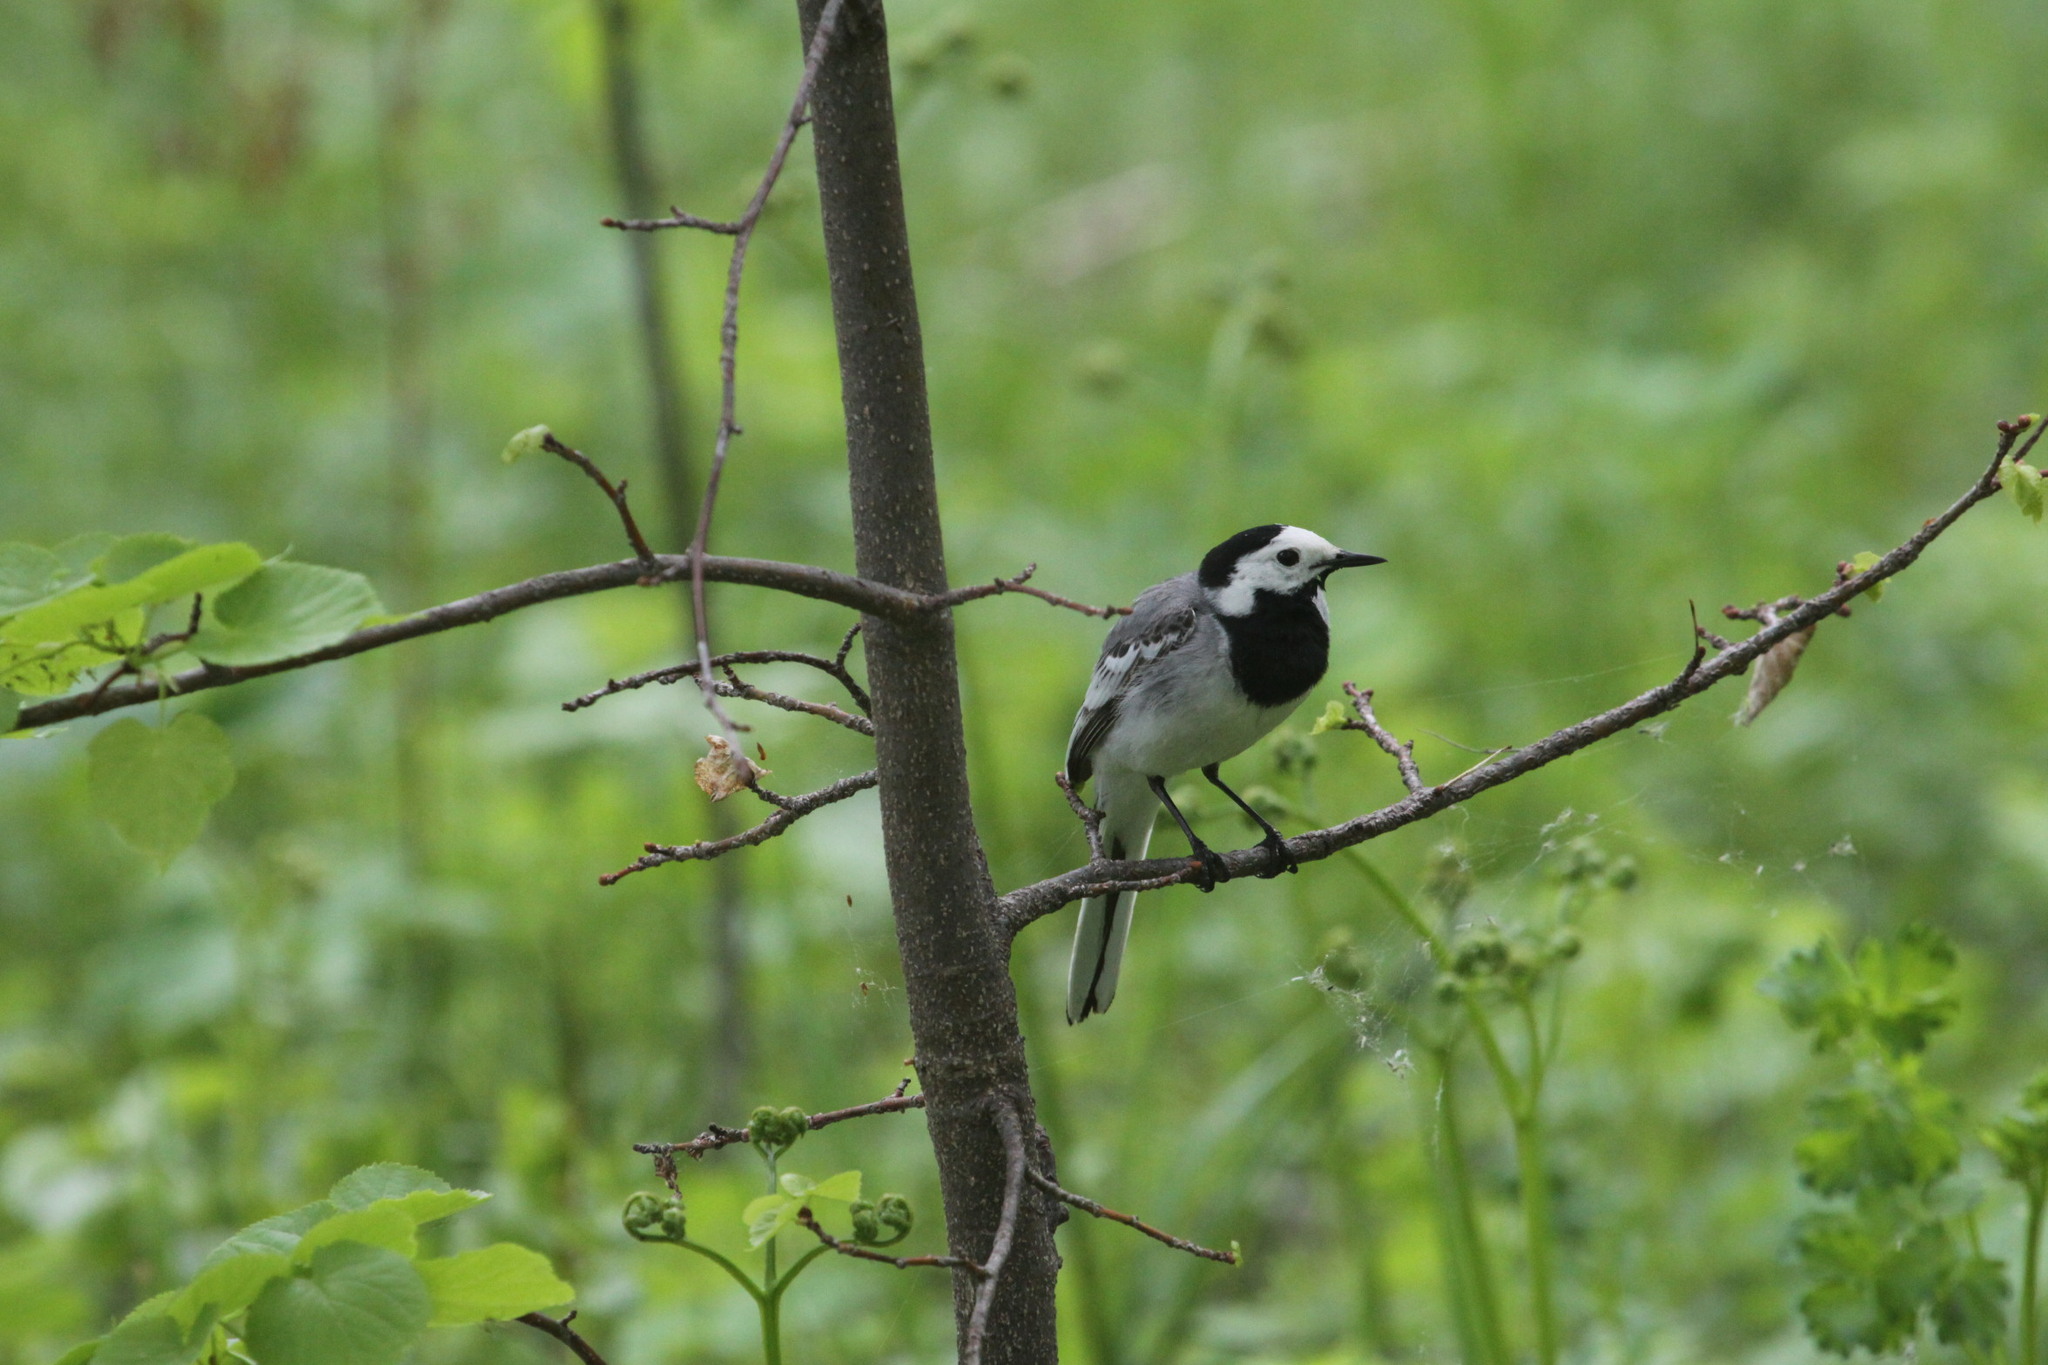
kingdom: Animalia
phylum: Chordata
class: Aves
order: Passeriformes
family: Motacillidae
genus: Motacilla
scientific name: Motacilla alba
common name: White wagtail
